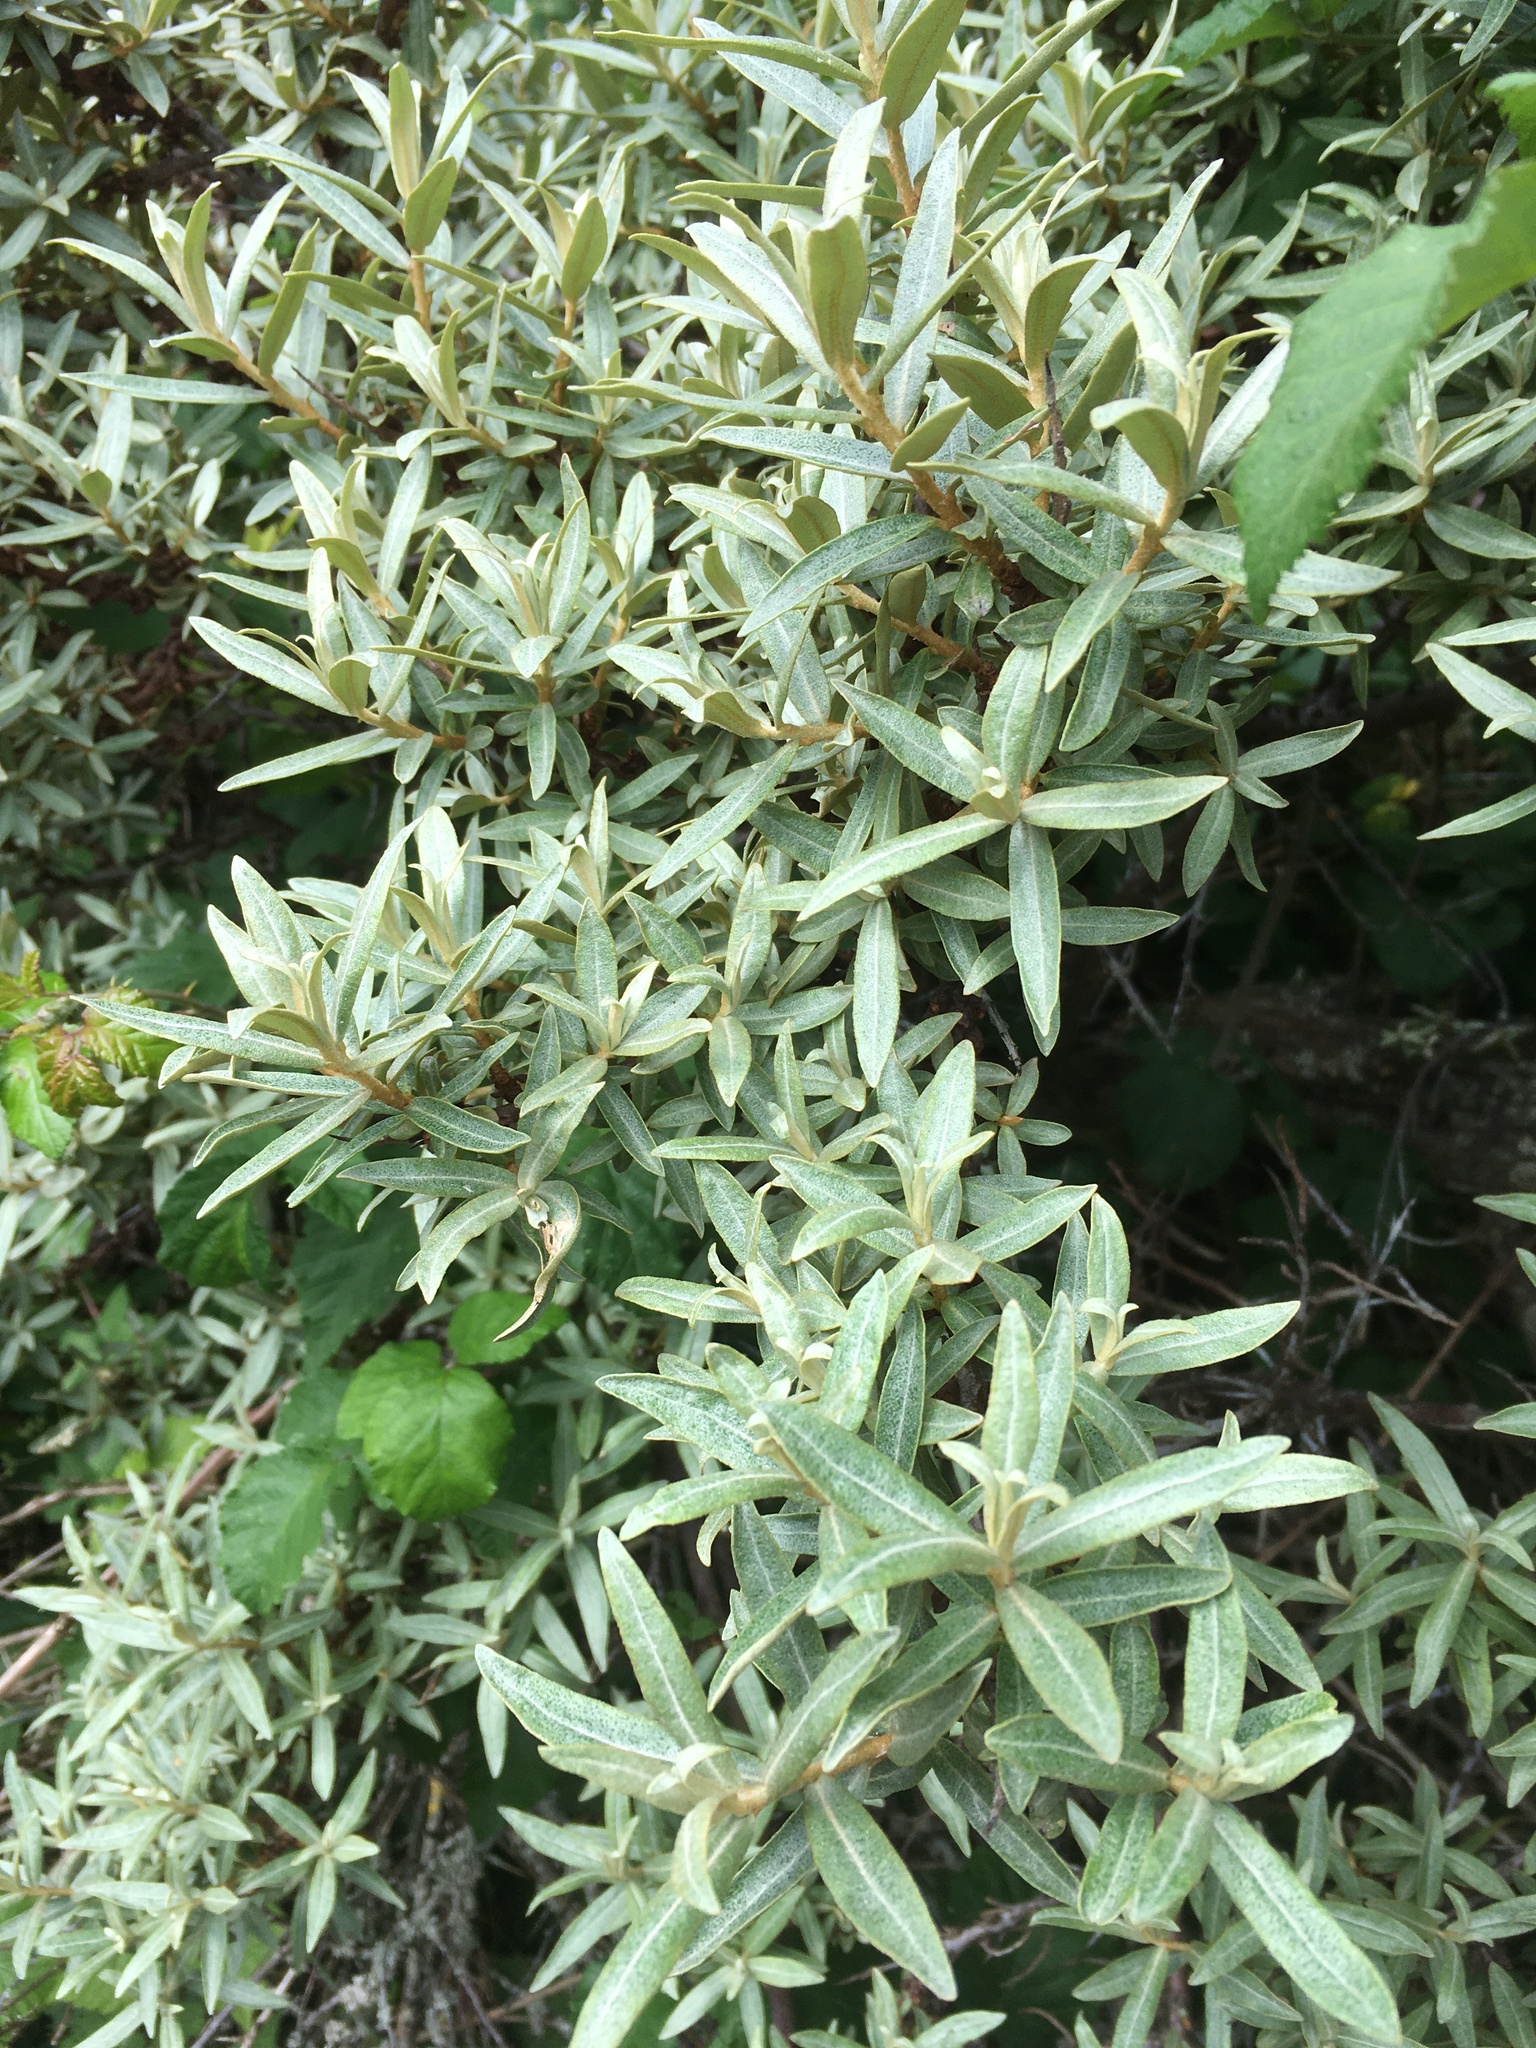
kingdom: Plantae
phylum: Tracheophyta
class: Magnoliopsida
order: Rosales
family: Elaeagnaceae
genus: Hippophae
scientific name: Hippophae rhamnoides
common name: Sea-buckthorn
